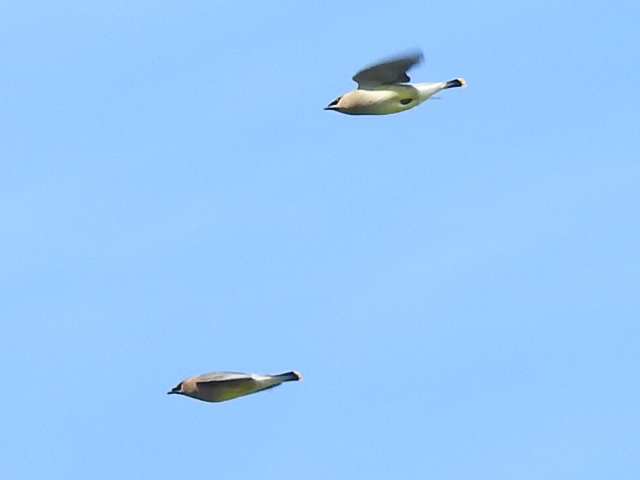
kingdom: Animalia
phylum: Chordata
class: Aves
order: Passeriformes
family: Bombycillidae
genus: Bombycilla
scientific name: Bombycilla cedrorum
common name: Cedar waxwing
